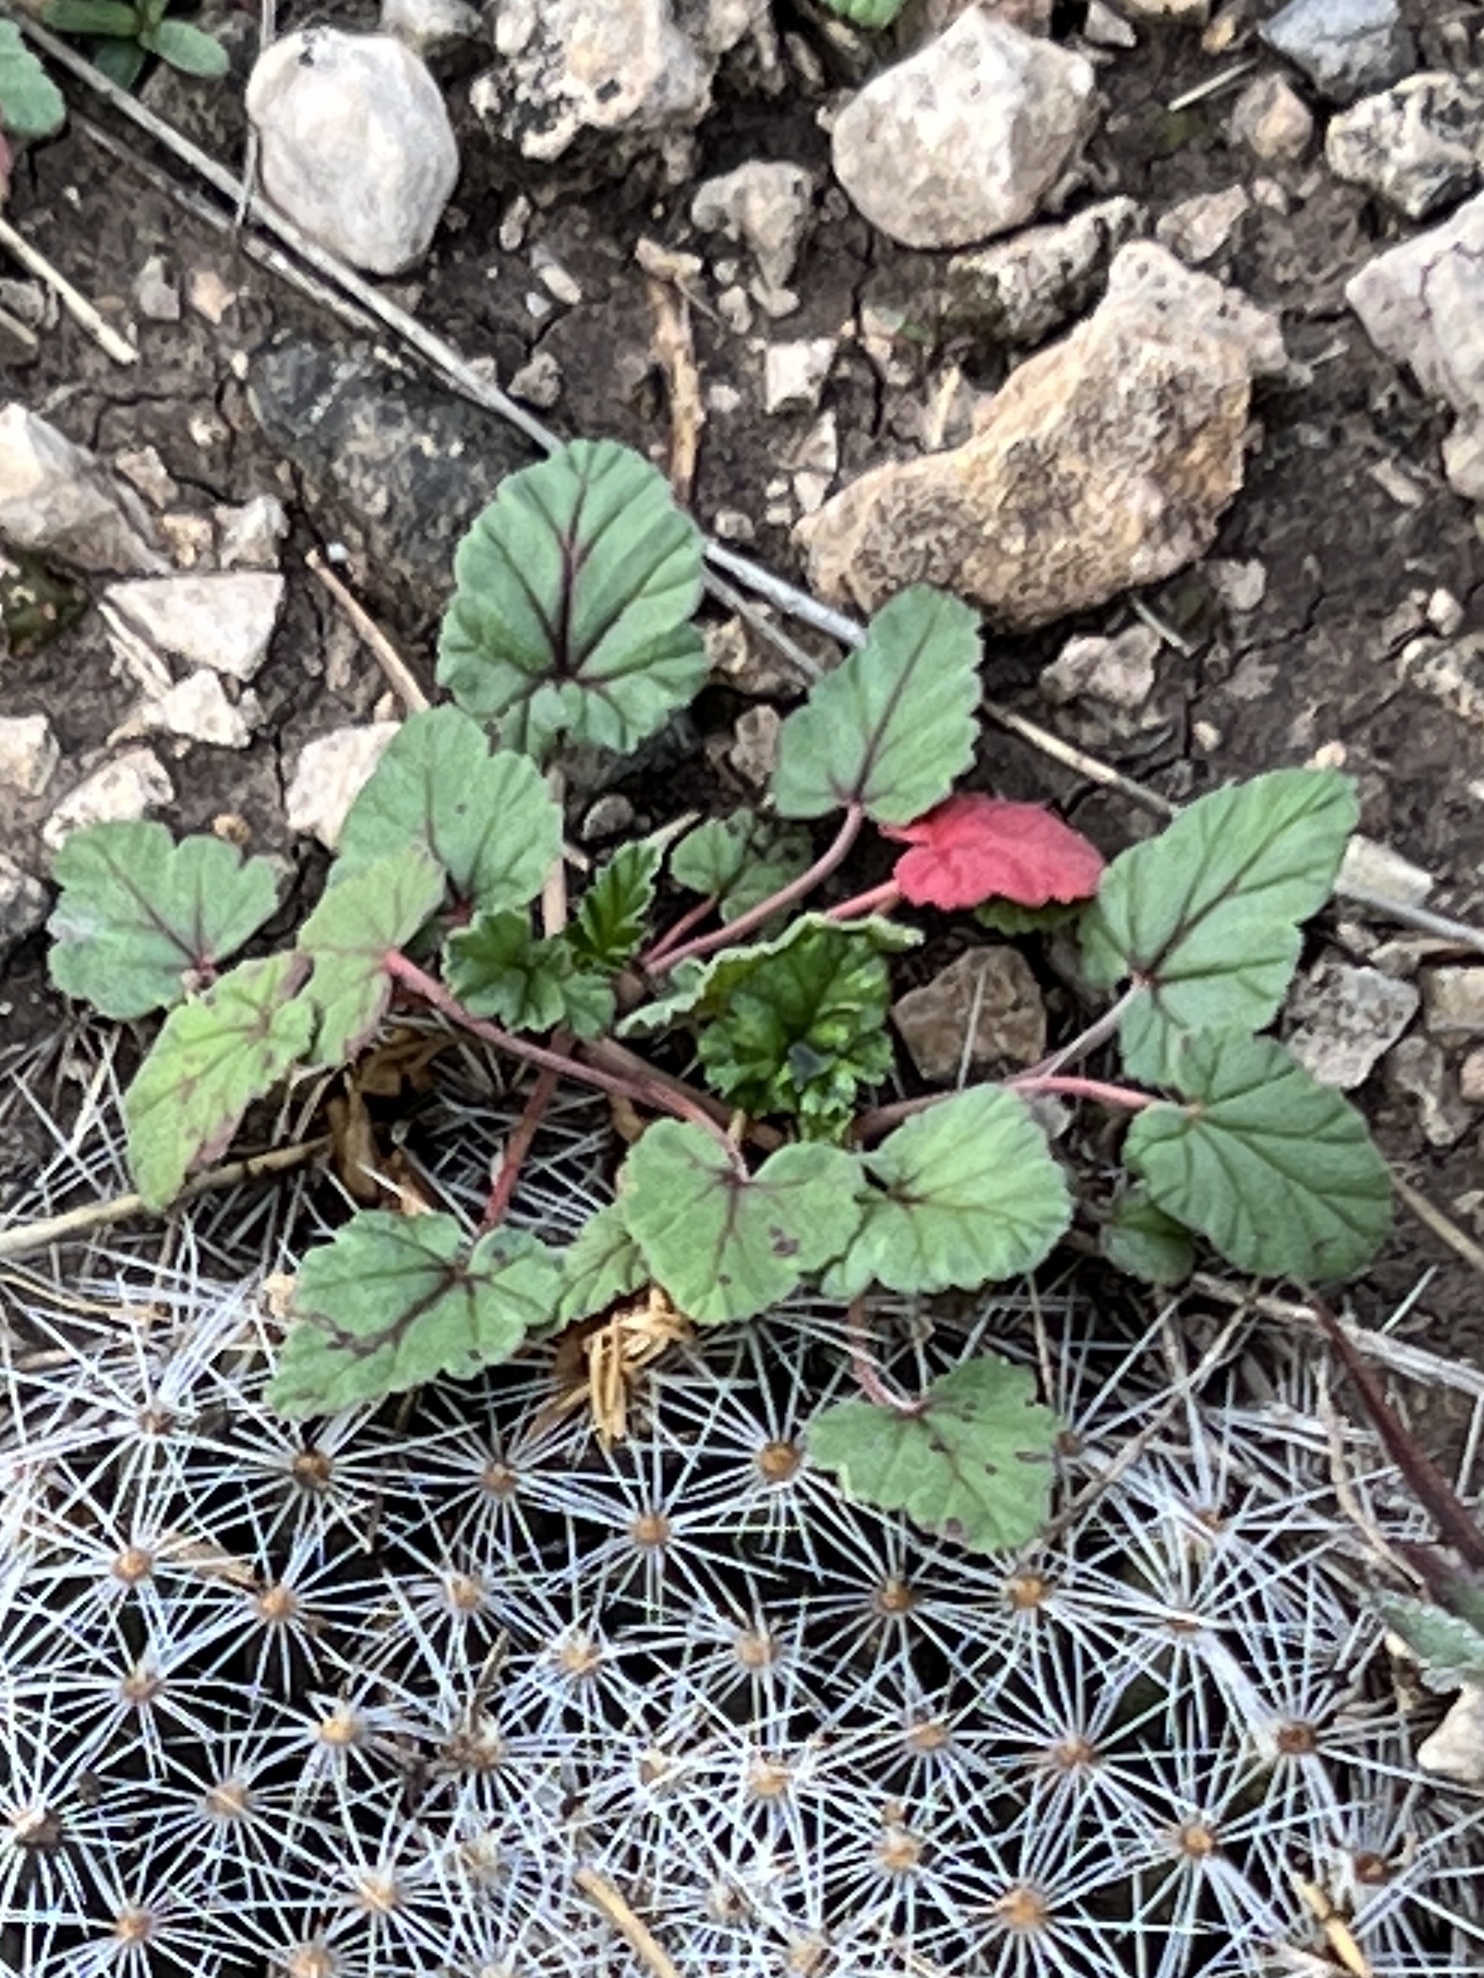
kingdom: Plantae
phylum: Tracheophyta
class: Magnoliopsida
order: Geraniales
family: Geraniaceae
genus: Erodium
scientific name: Erodium texanum
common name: Texas stork's-bill
